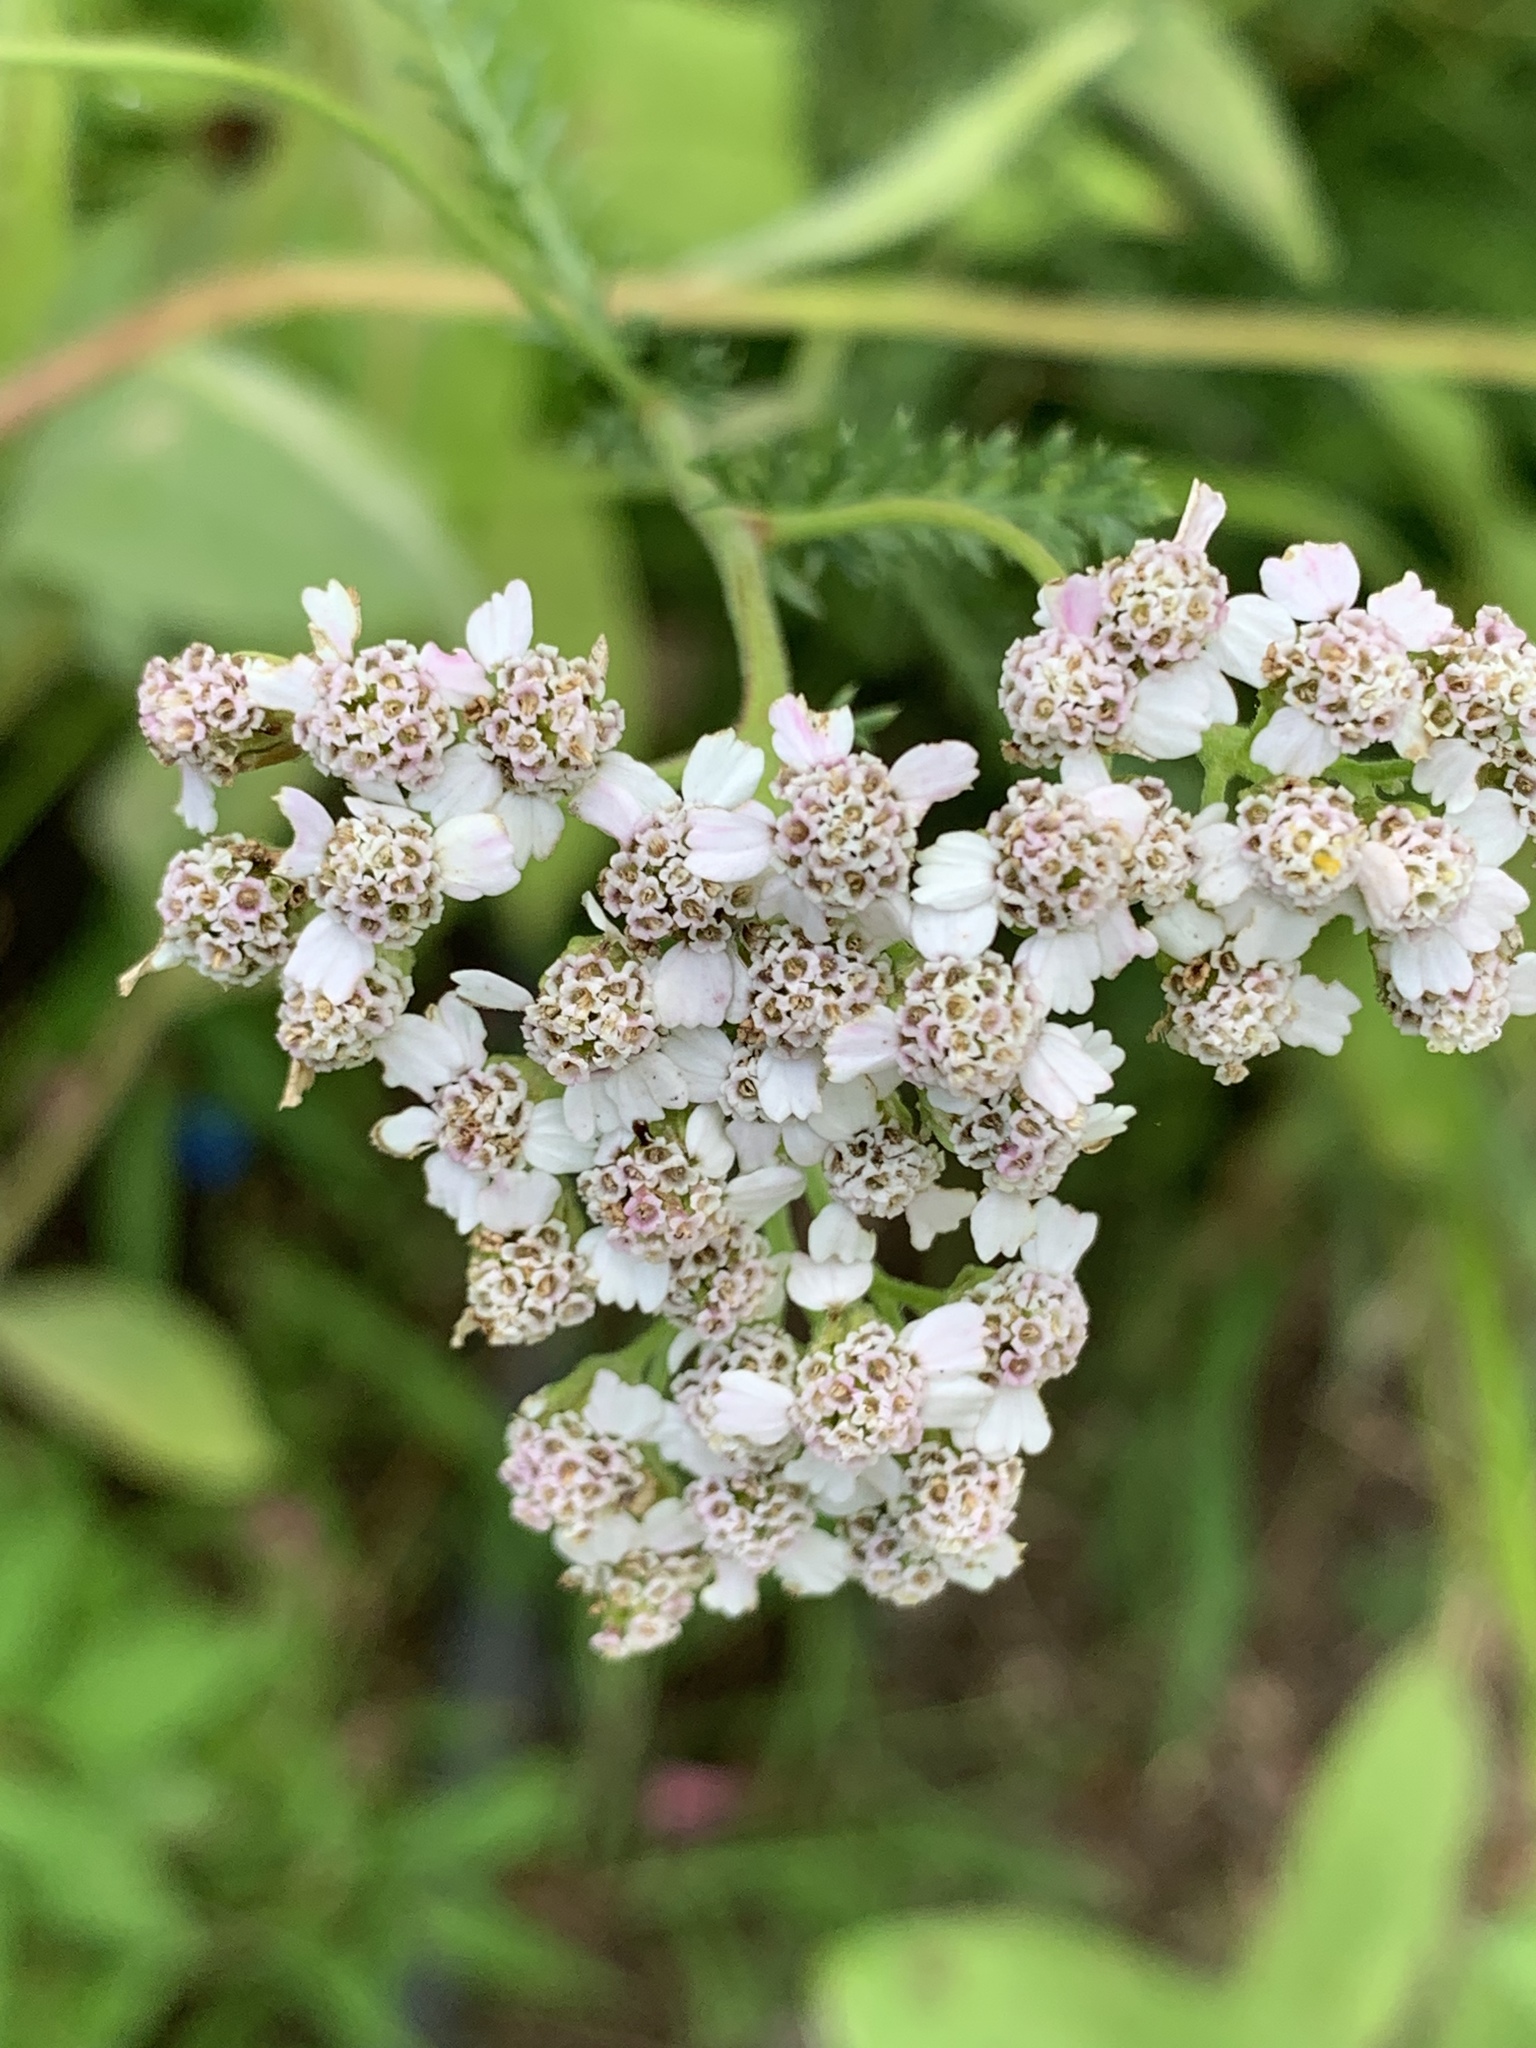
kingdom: Plantae
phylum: Tracheophyta
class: Magnoliopsida
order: Asterales
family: Asteraceae
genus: Achillea
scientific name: Achillea millefolium
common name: Yarrow
